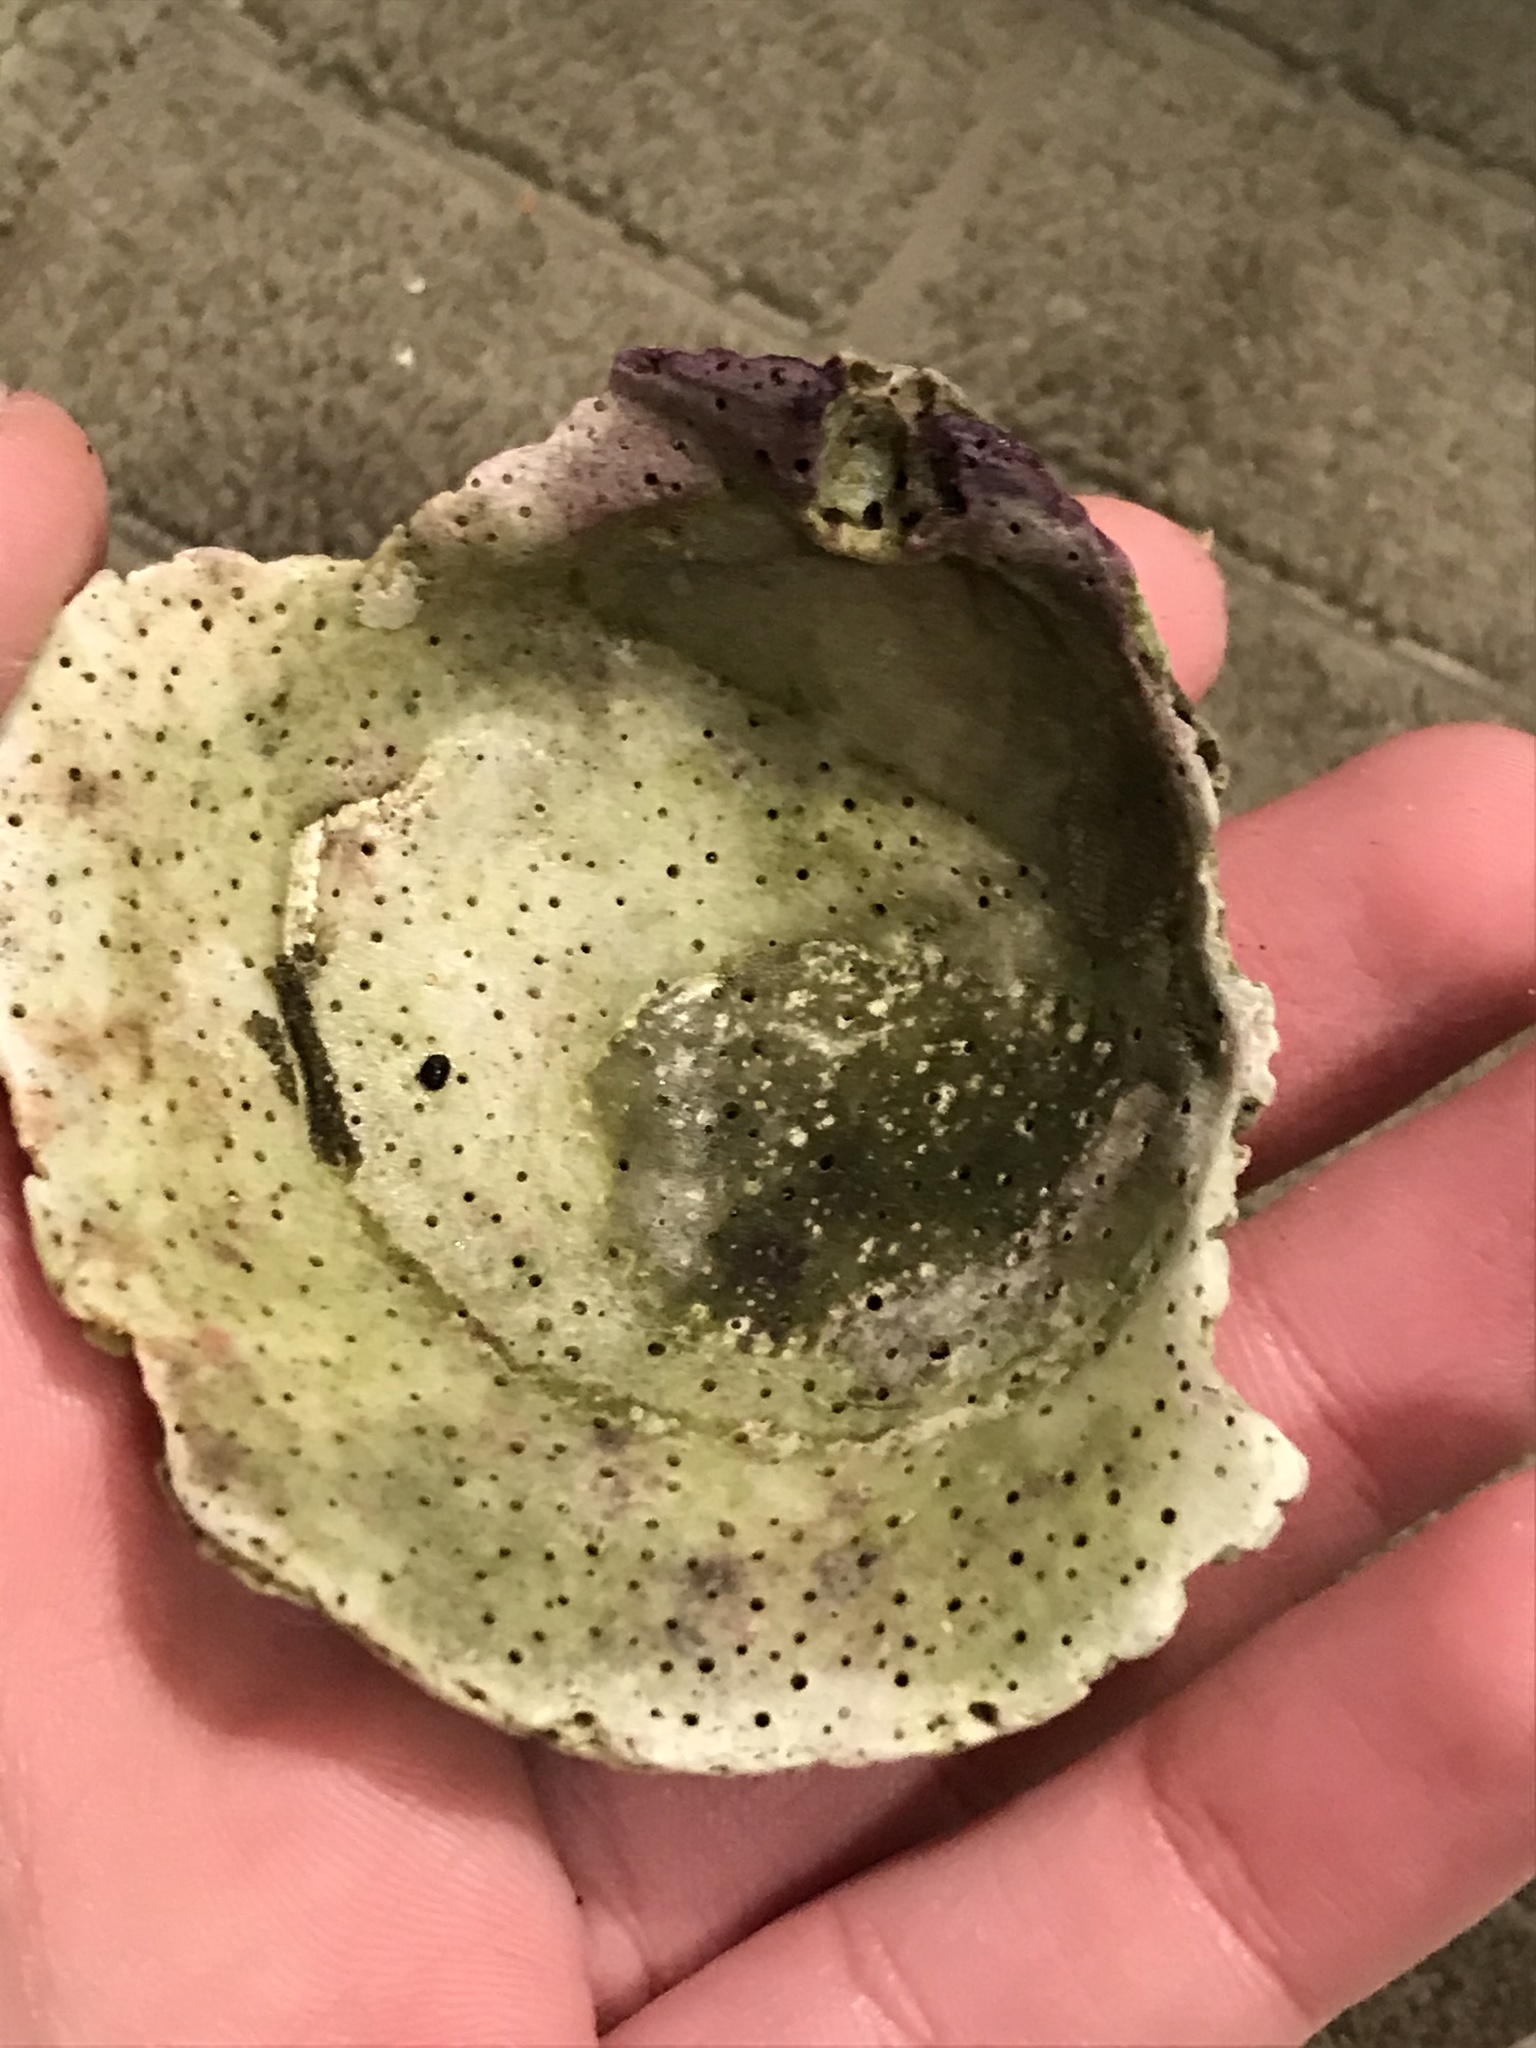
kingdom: Animalia
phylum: Mollusca
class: Bivalvia
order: Pectinida
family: Pectinidae
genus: Crassadoma
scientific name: Crassadoma gigantea
